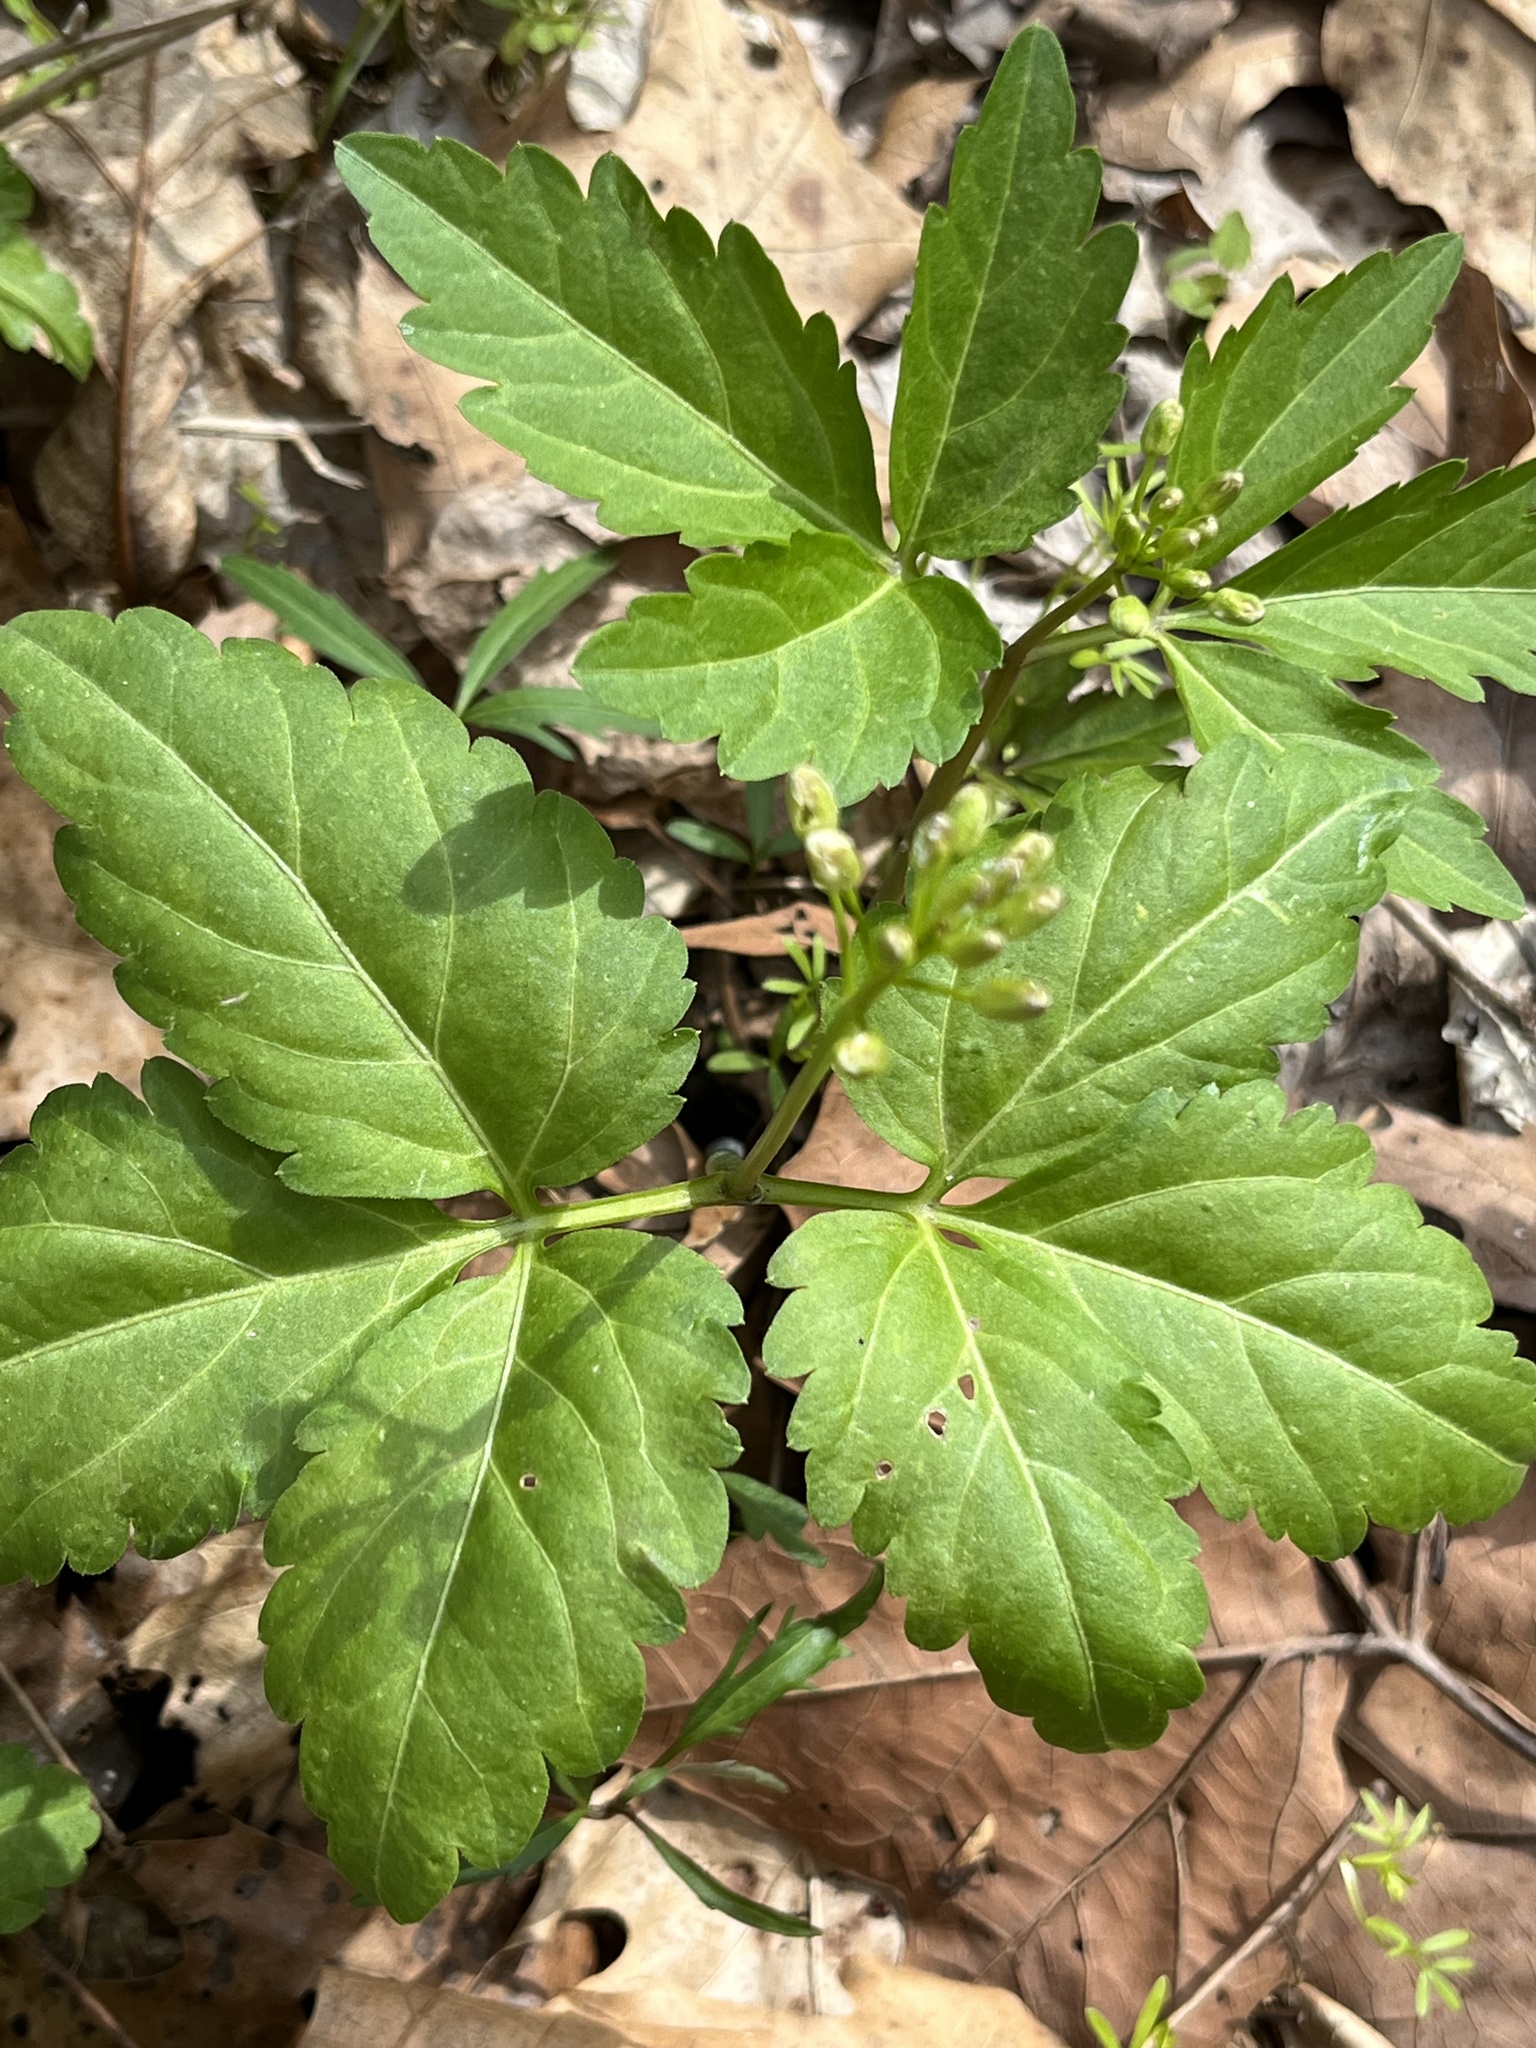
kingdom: Plantae
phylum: Tracheophyta
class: Magnoliopsida
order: Brassicales
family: Brassicaceae
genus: Cardamine
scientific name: Cardamine diphylla
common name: Broad-leaved toothwort
